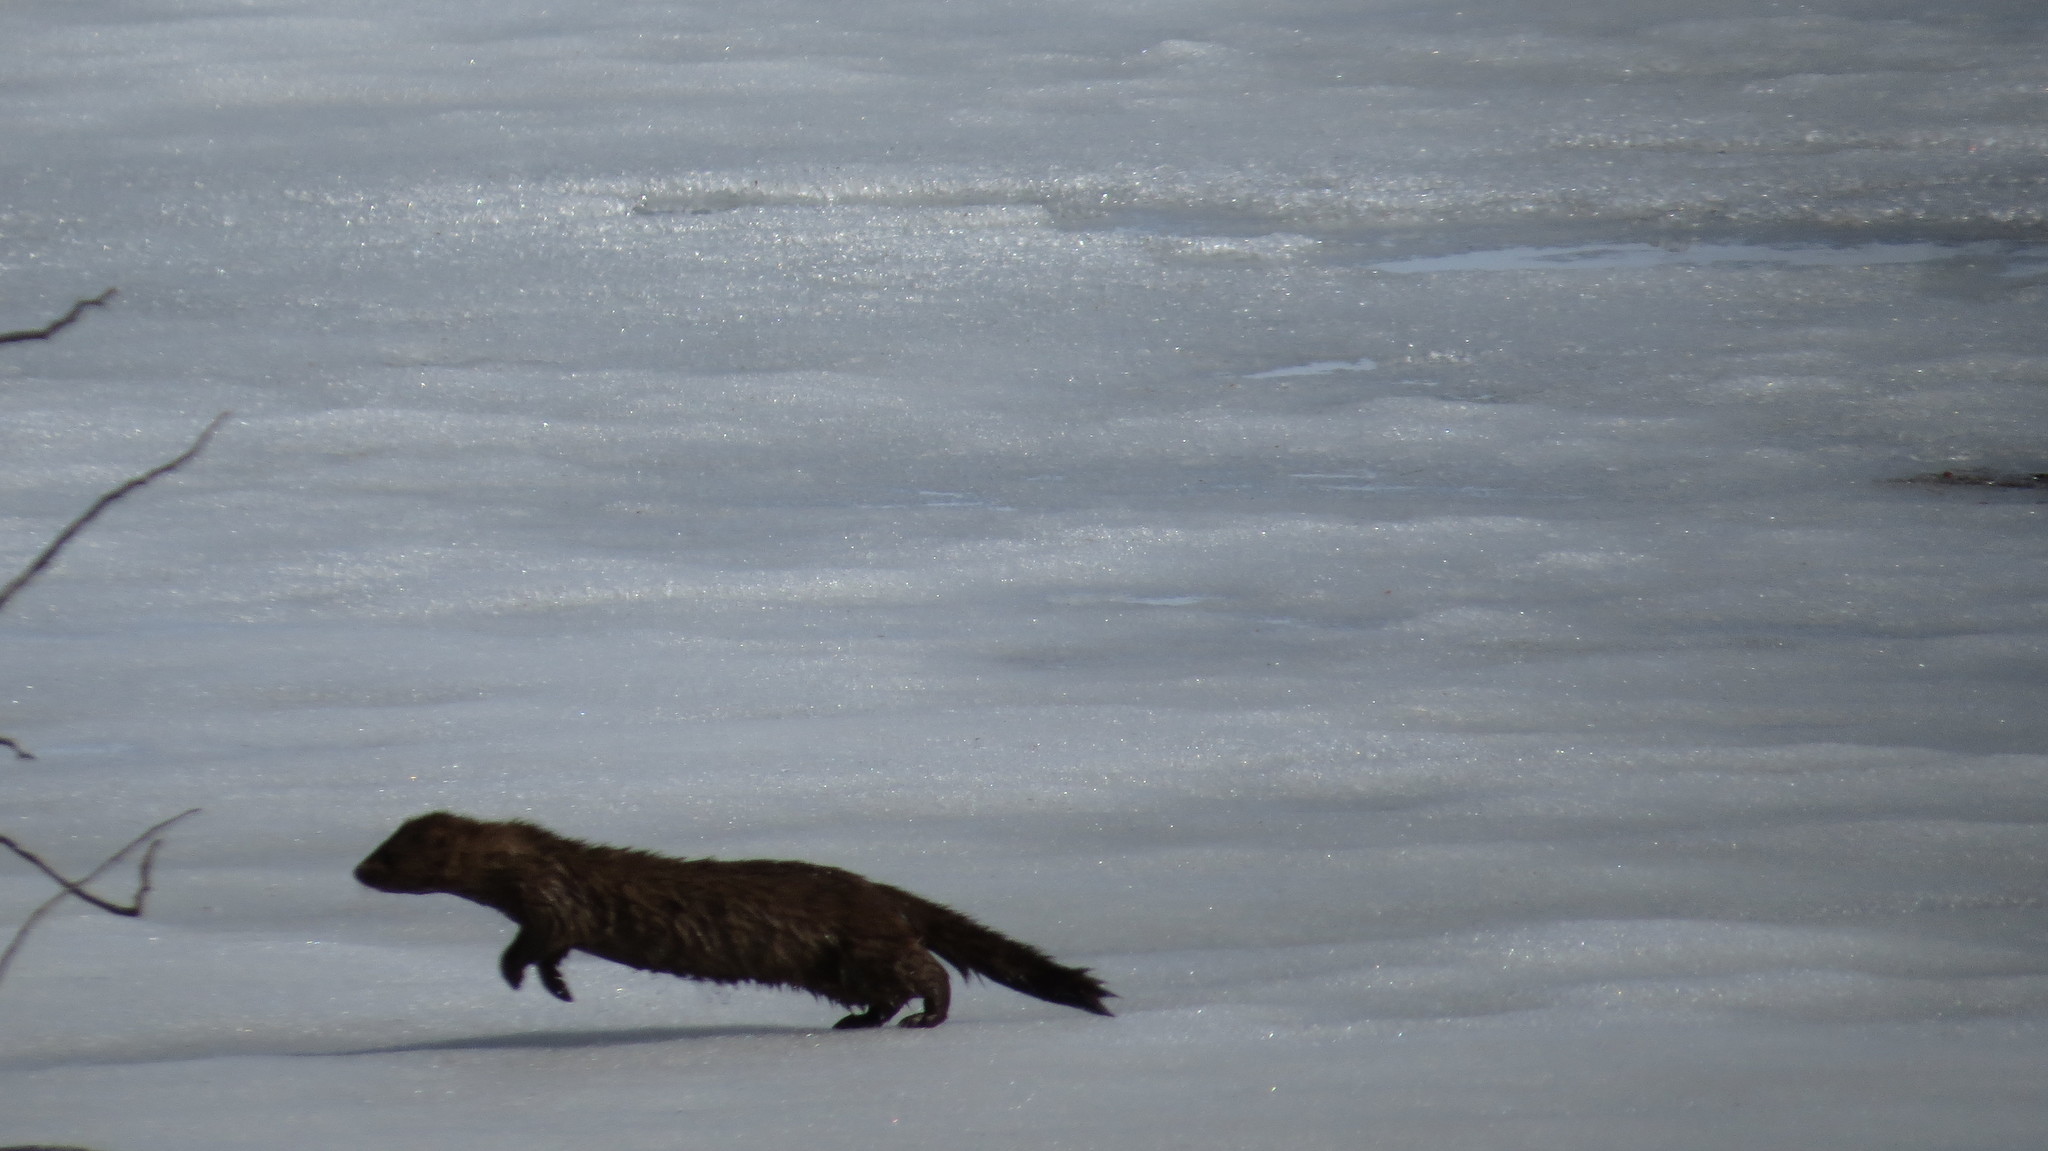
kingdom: Animalia
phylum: Chordata
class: Mammalia
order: Carnivora
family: Mustelidae
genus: Mustela
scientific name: Mustela
